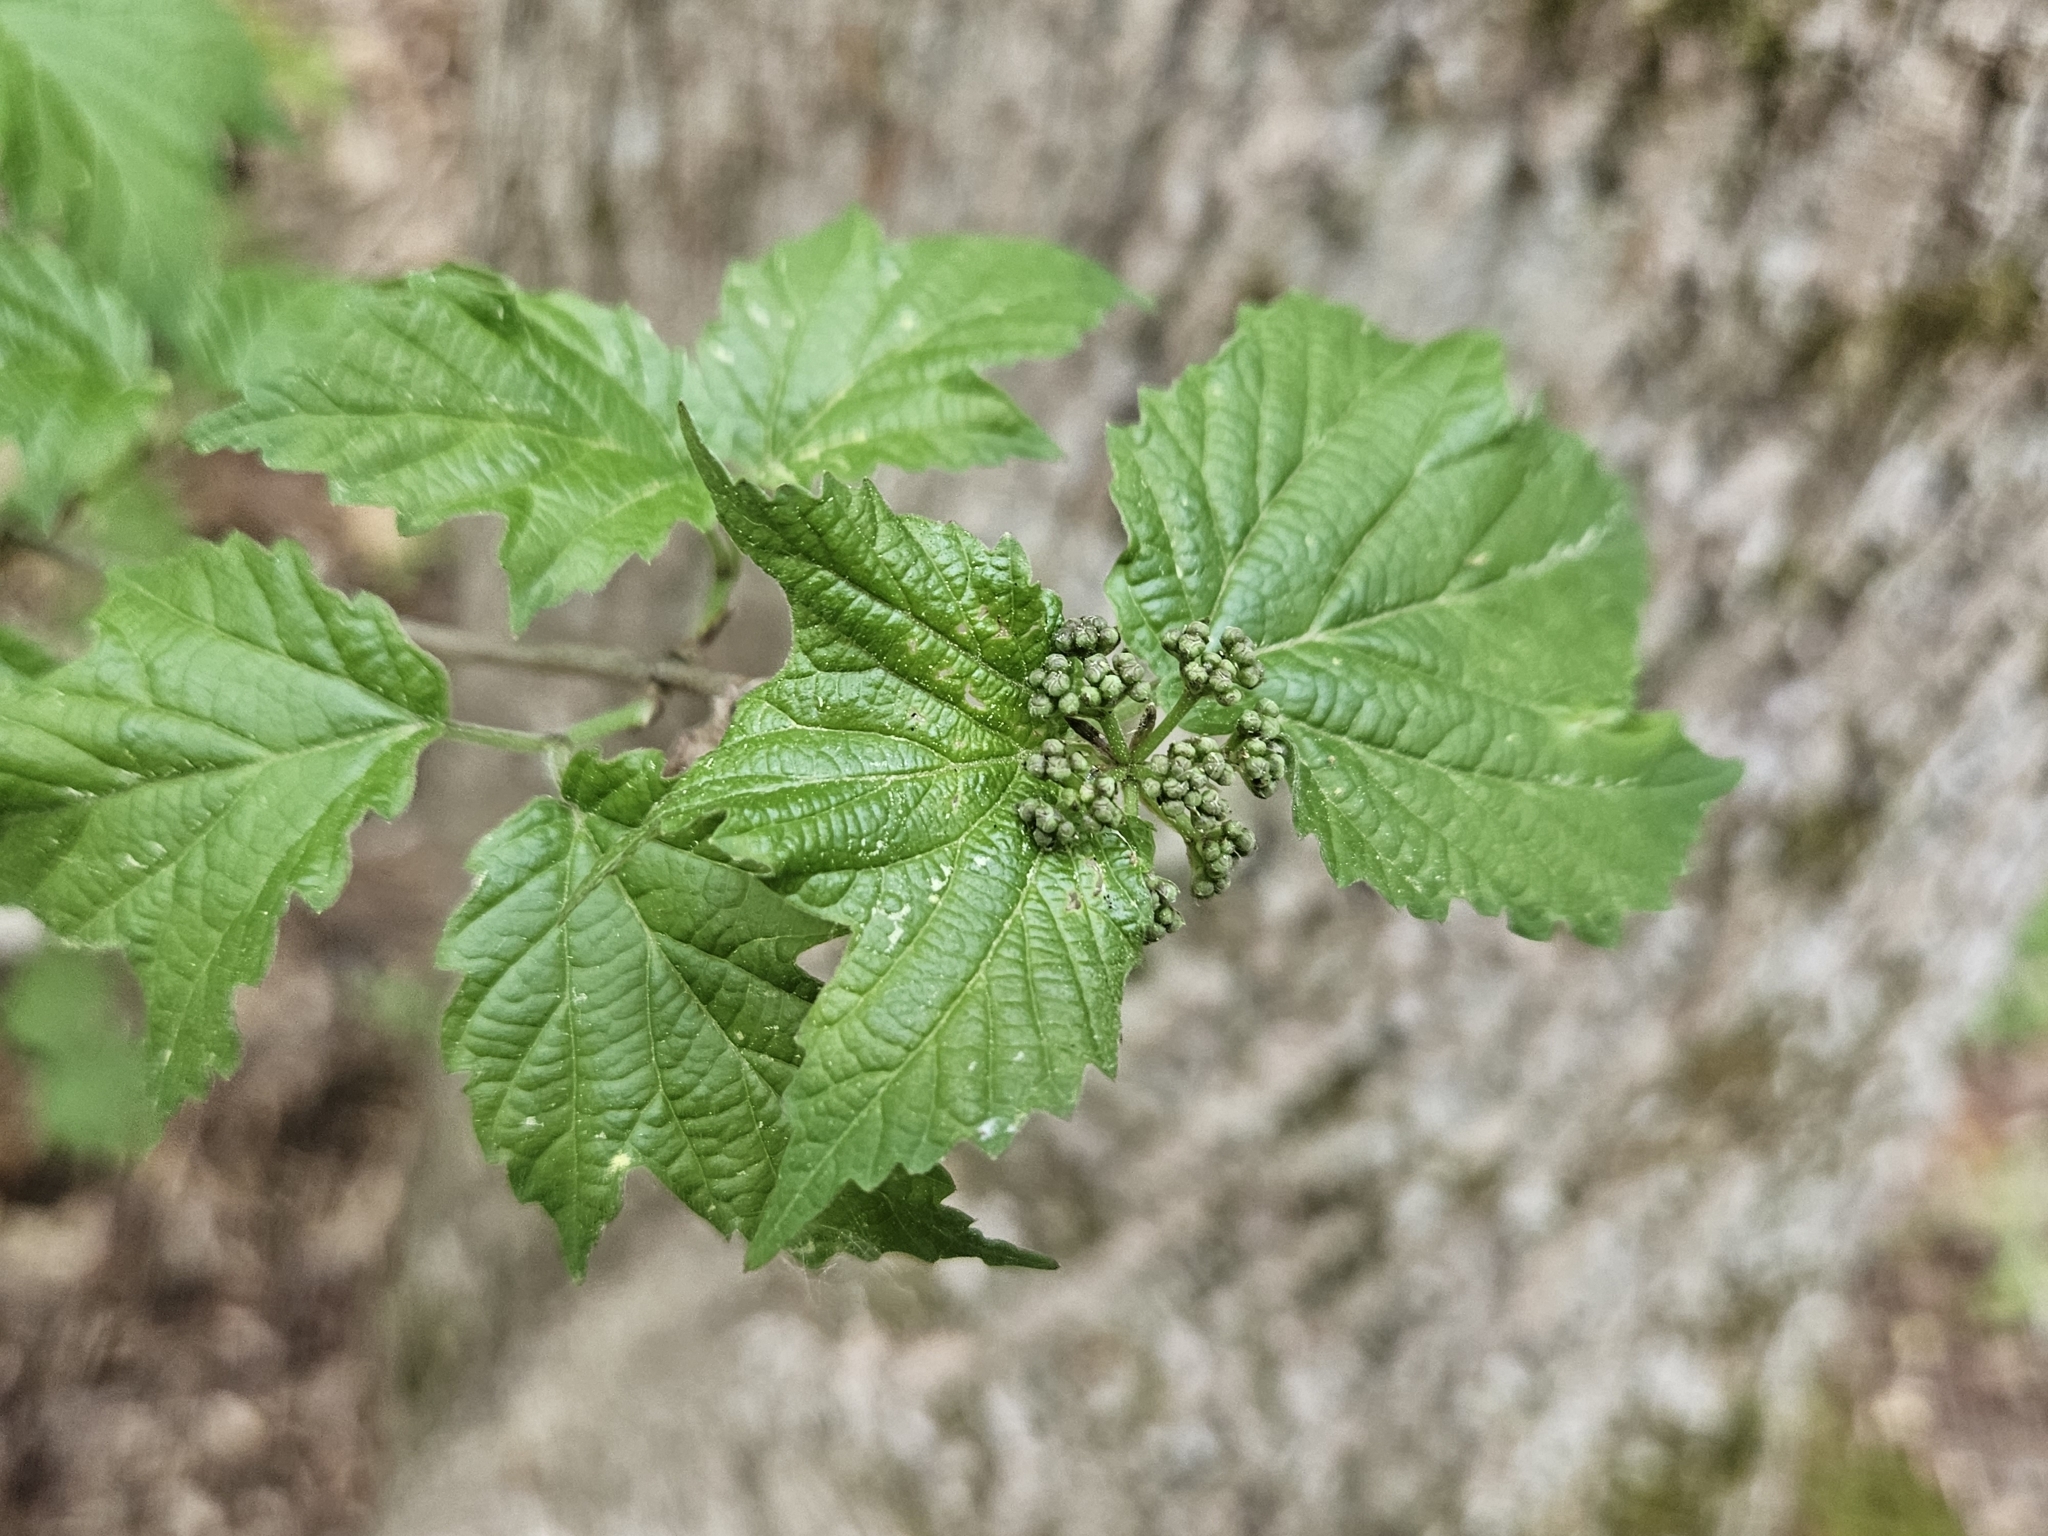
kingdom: Plantae
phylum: Tracheophyta
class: Magnoliopsida
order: Dipsacales
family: Viburnaceae
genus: Viburnum
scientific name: Viburnum acerifolium
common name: Dockmackie
